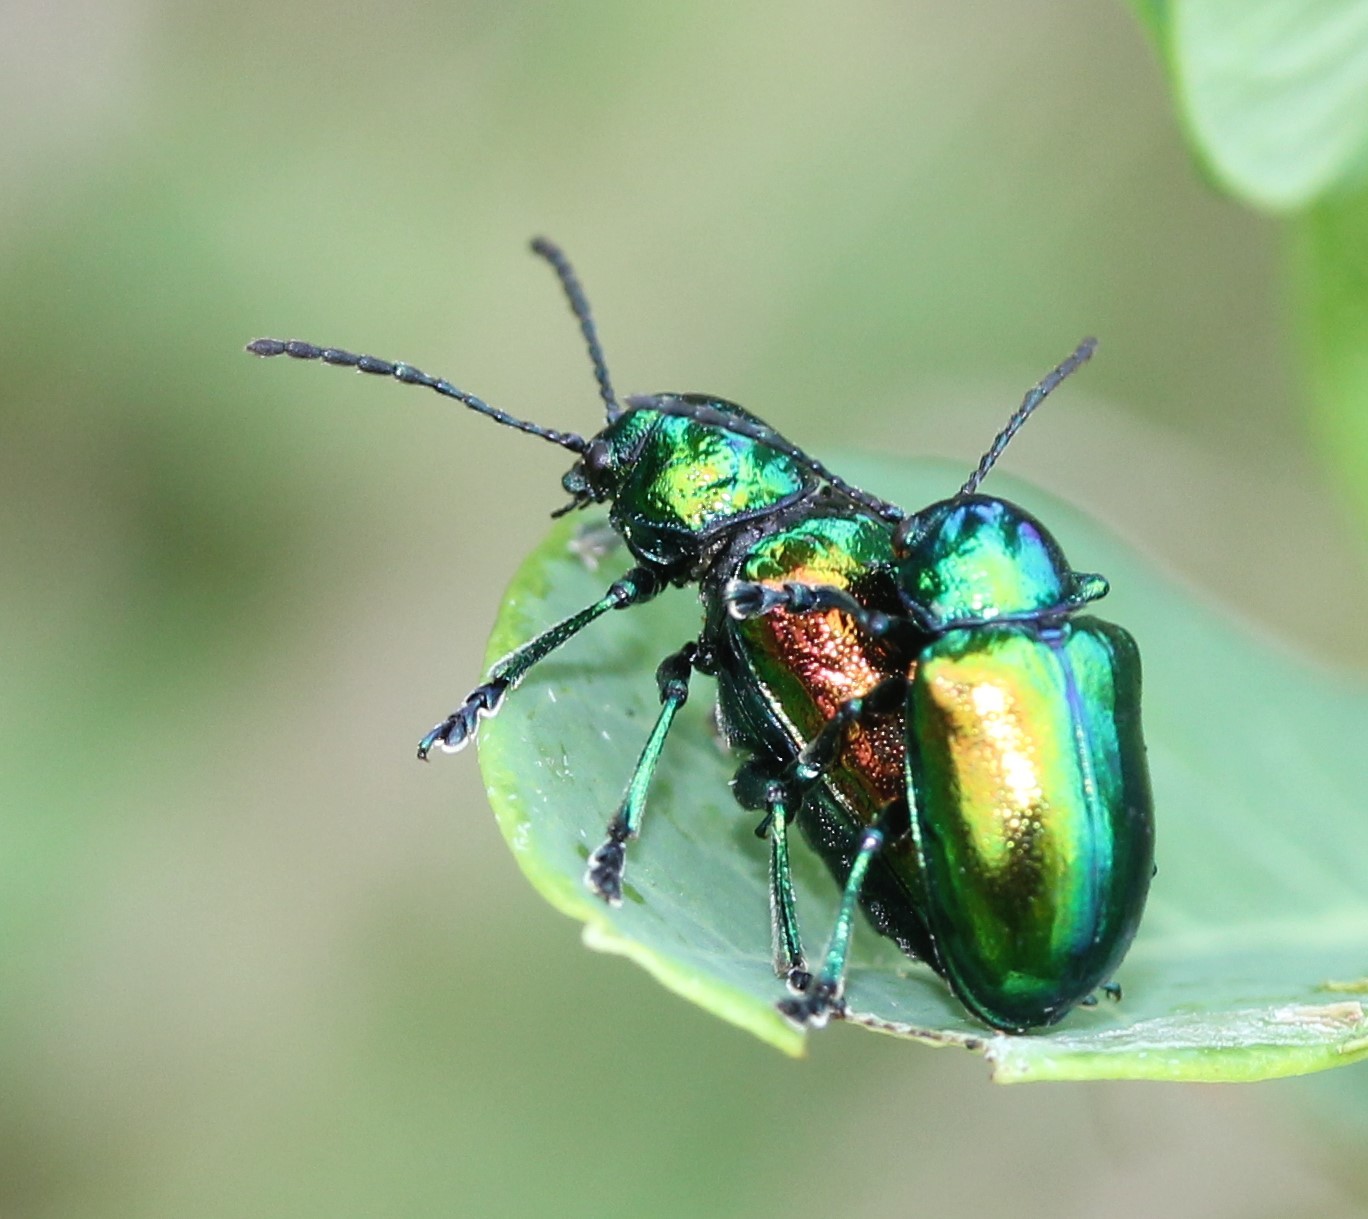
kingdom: Animalia
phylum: Arthropoda
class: Insecta
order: Coleoptera
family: Chrysomelidae
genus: Chrysochus
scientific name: Chrysochus auratus
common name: Dogbane leaf beetle
